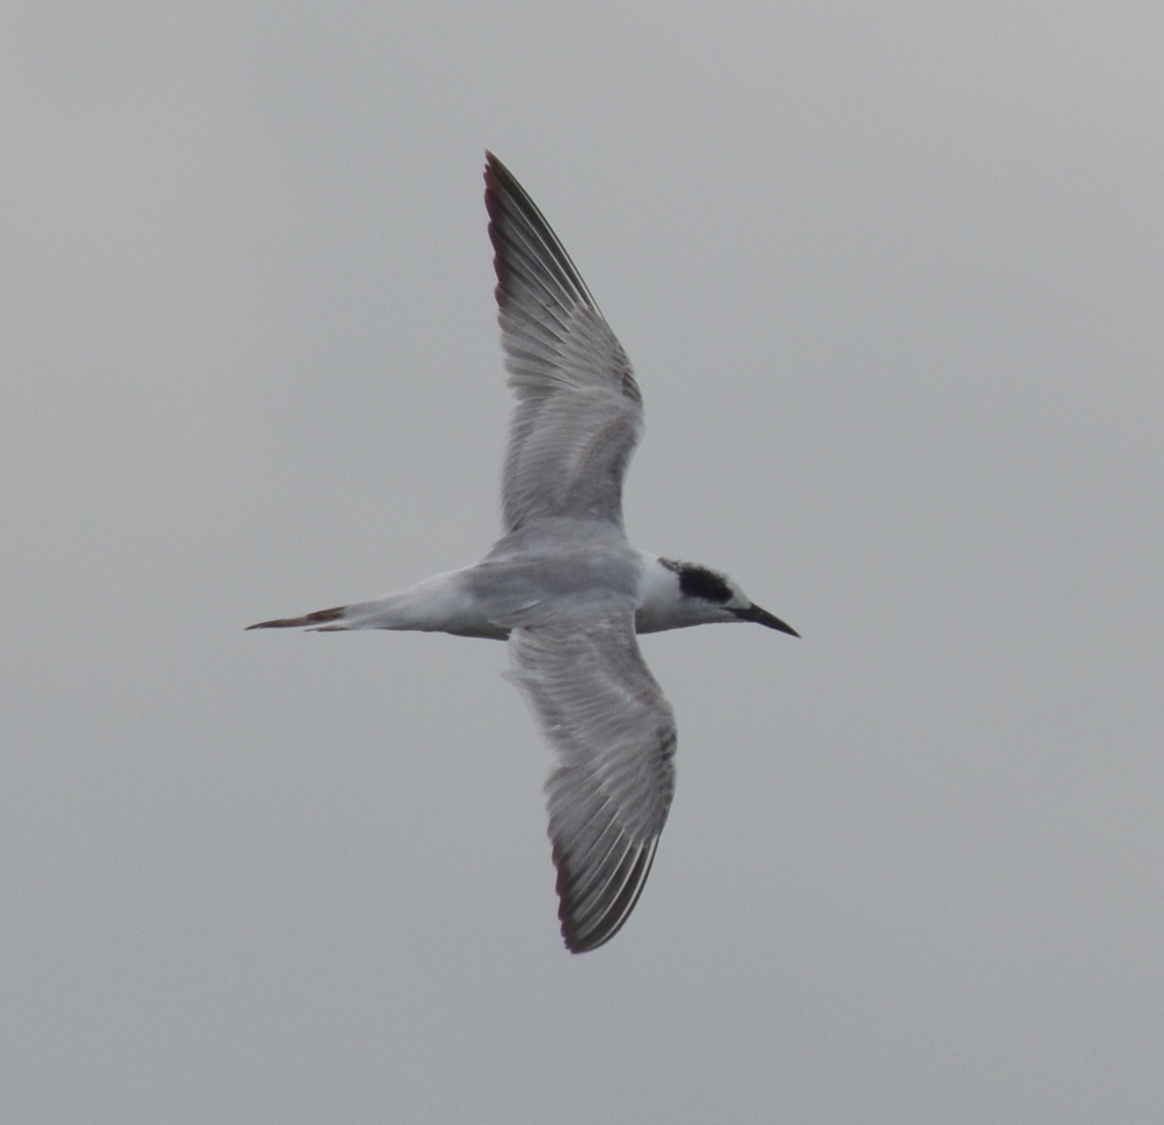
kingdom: Animalia
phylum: Chordata
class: Aves
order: Charadriiformes
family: Laridae
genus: Sterna
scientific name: Sterna forsteri
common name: Forster's tern
